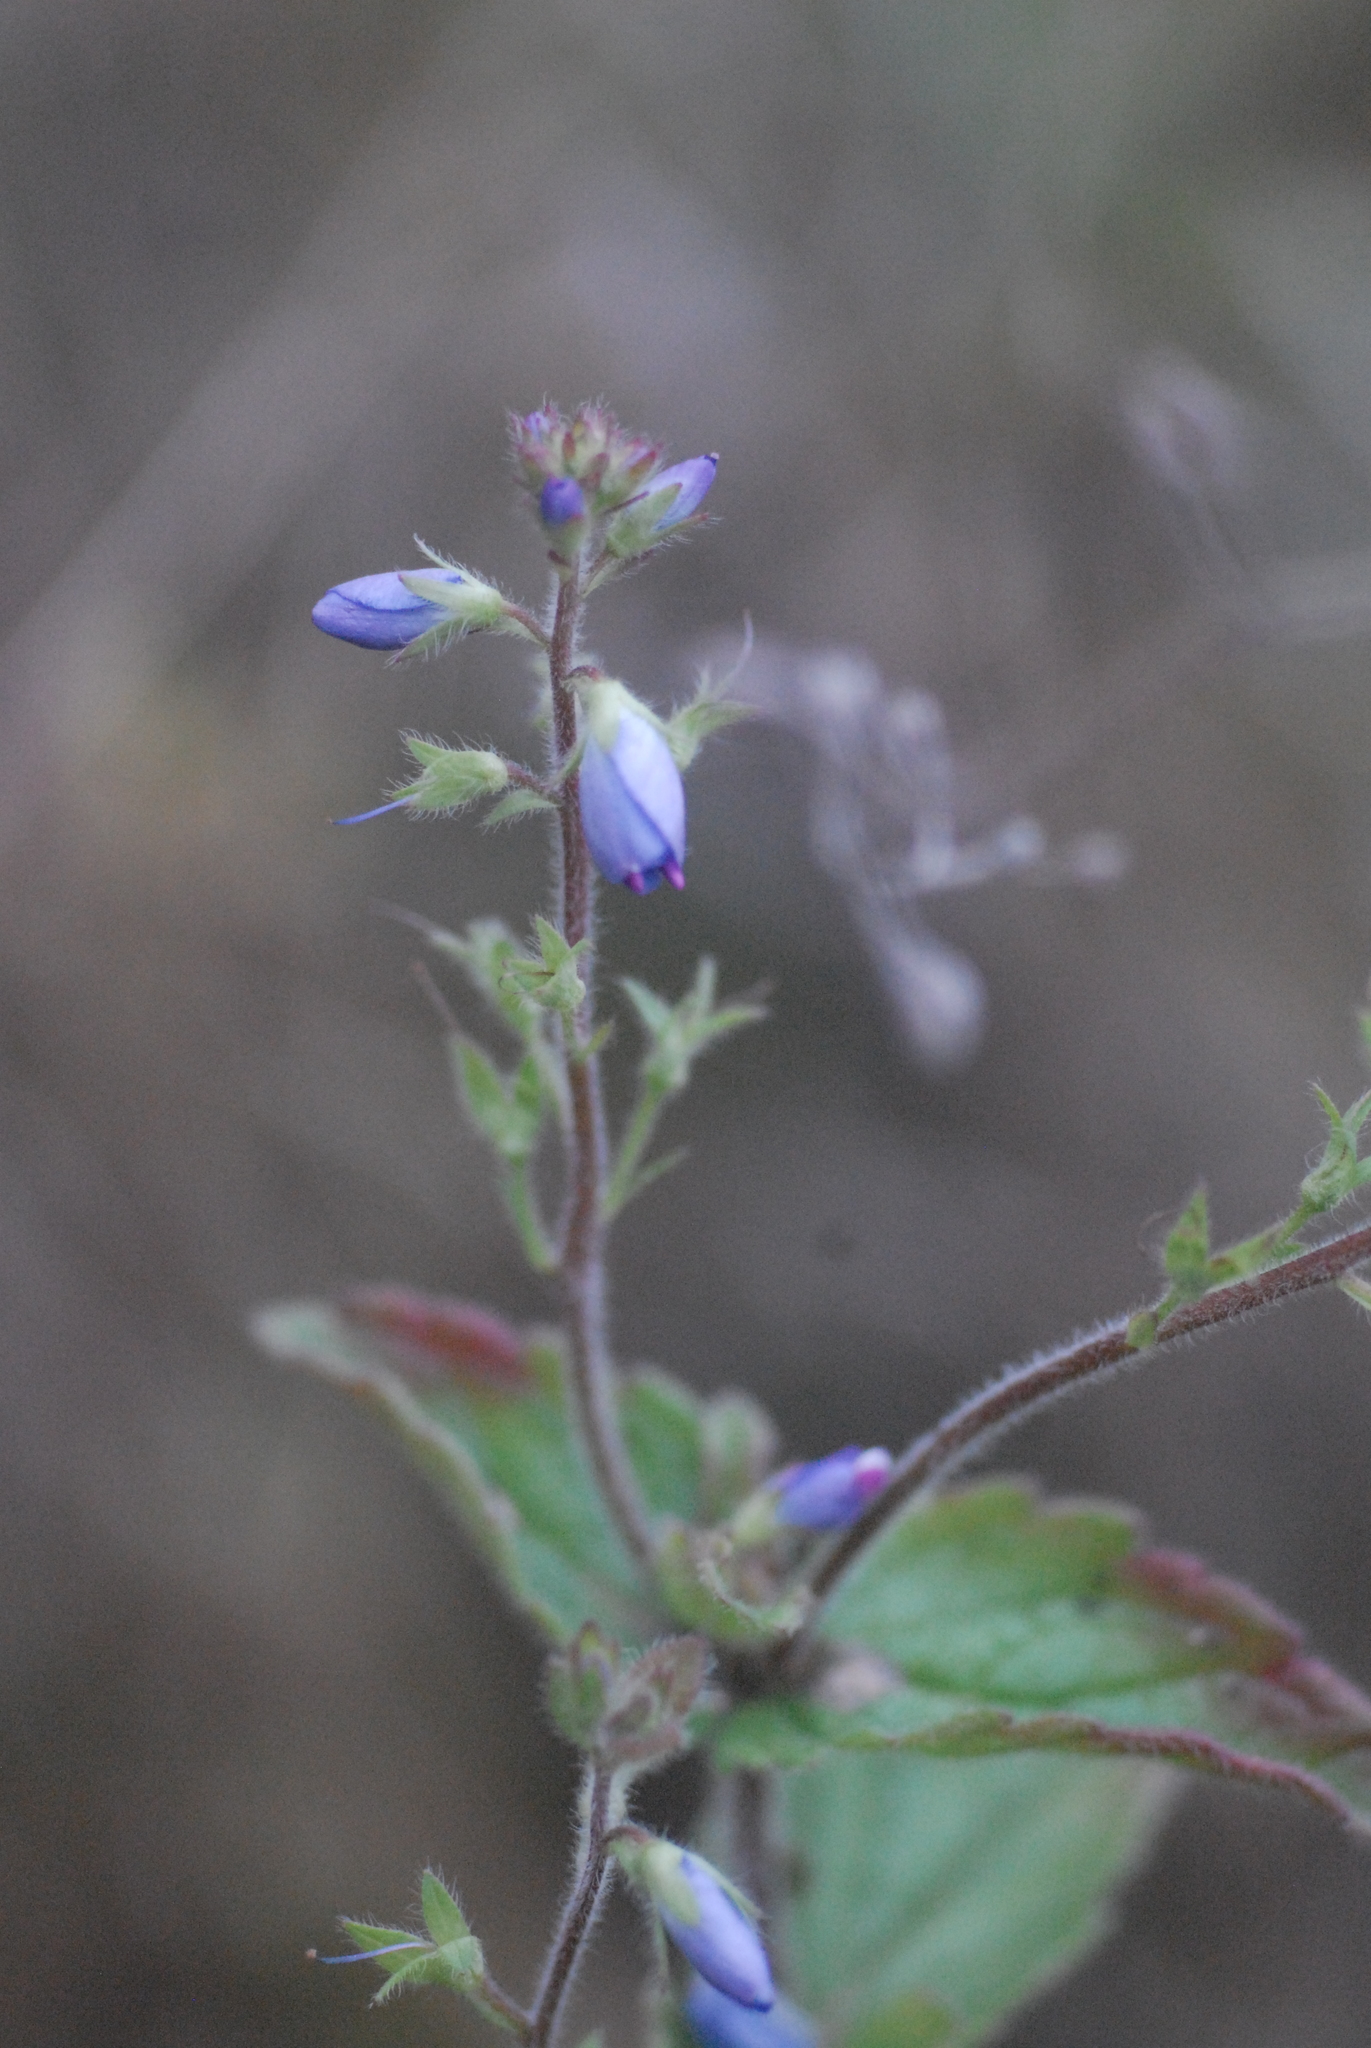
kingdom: Plantae
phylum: Tracheophyta
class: Magnoliopsida
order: Lamiales
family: Plantaginaceae
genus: Veronica
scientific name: Veronica chamaedrys
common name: Germander speedwell
